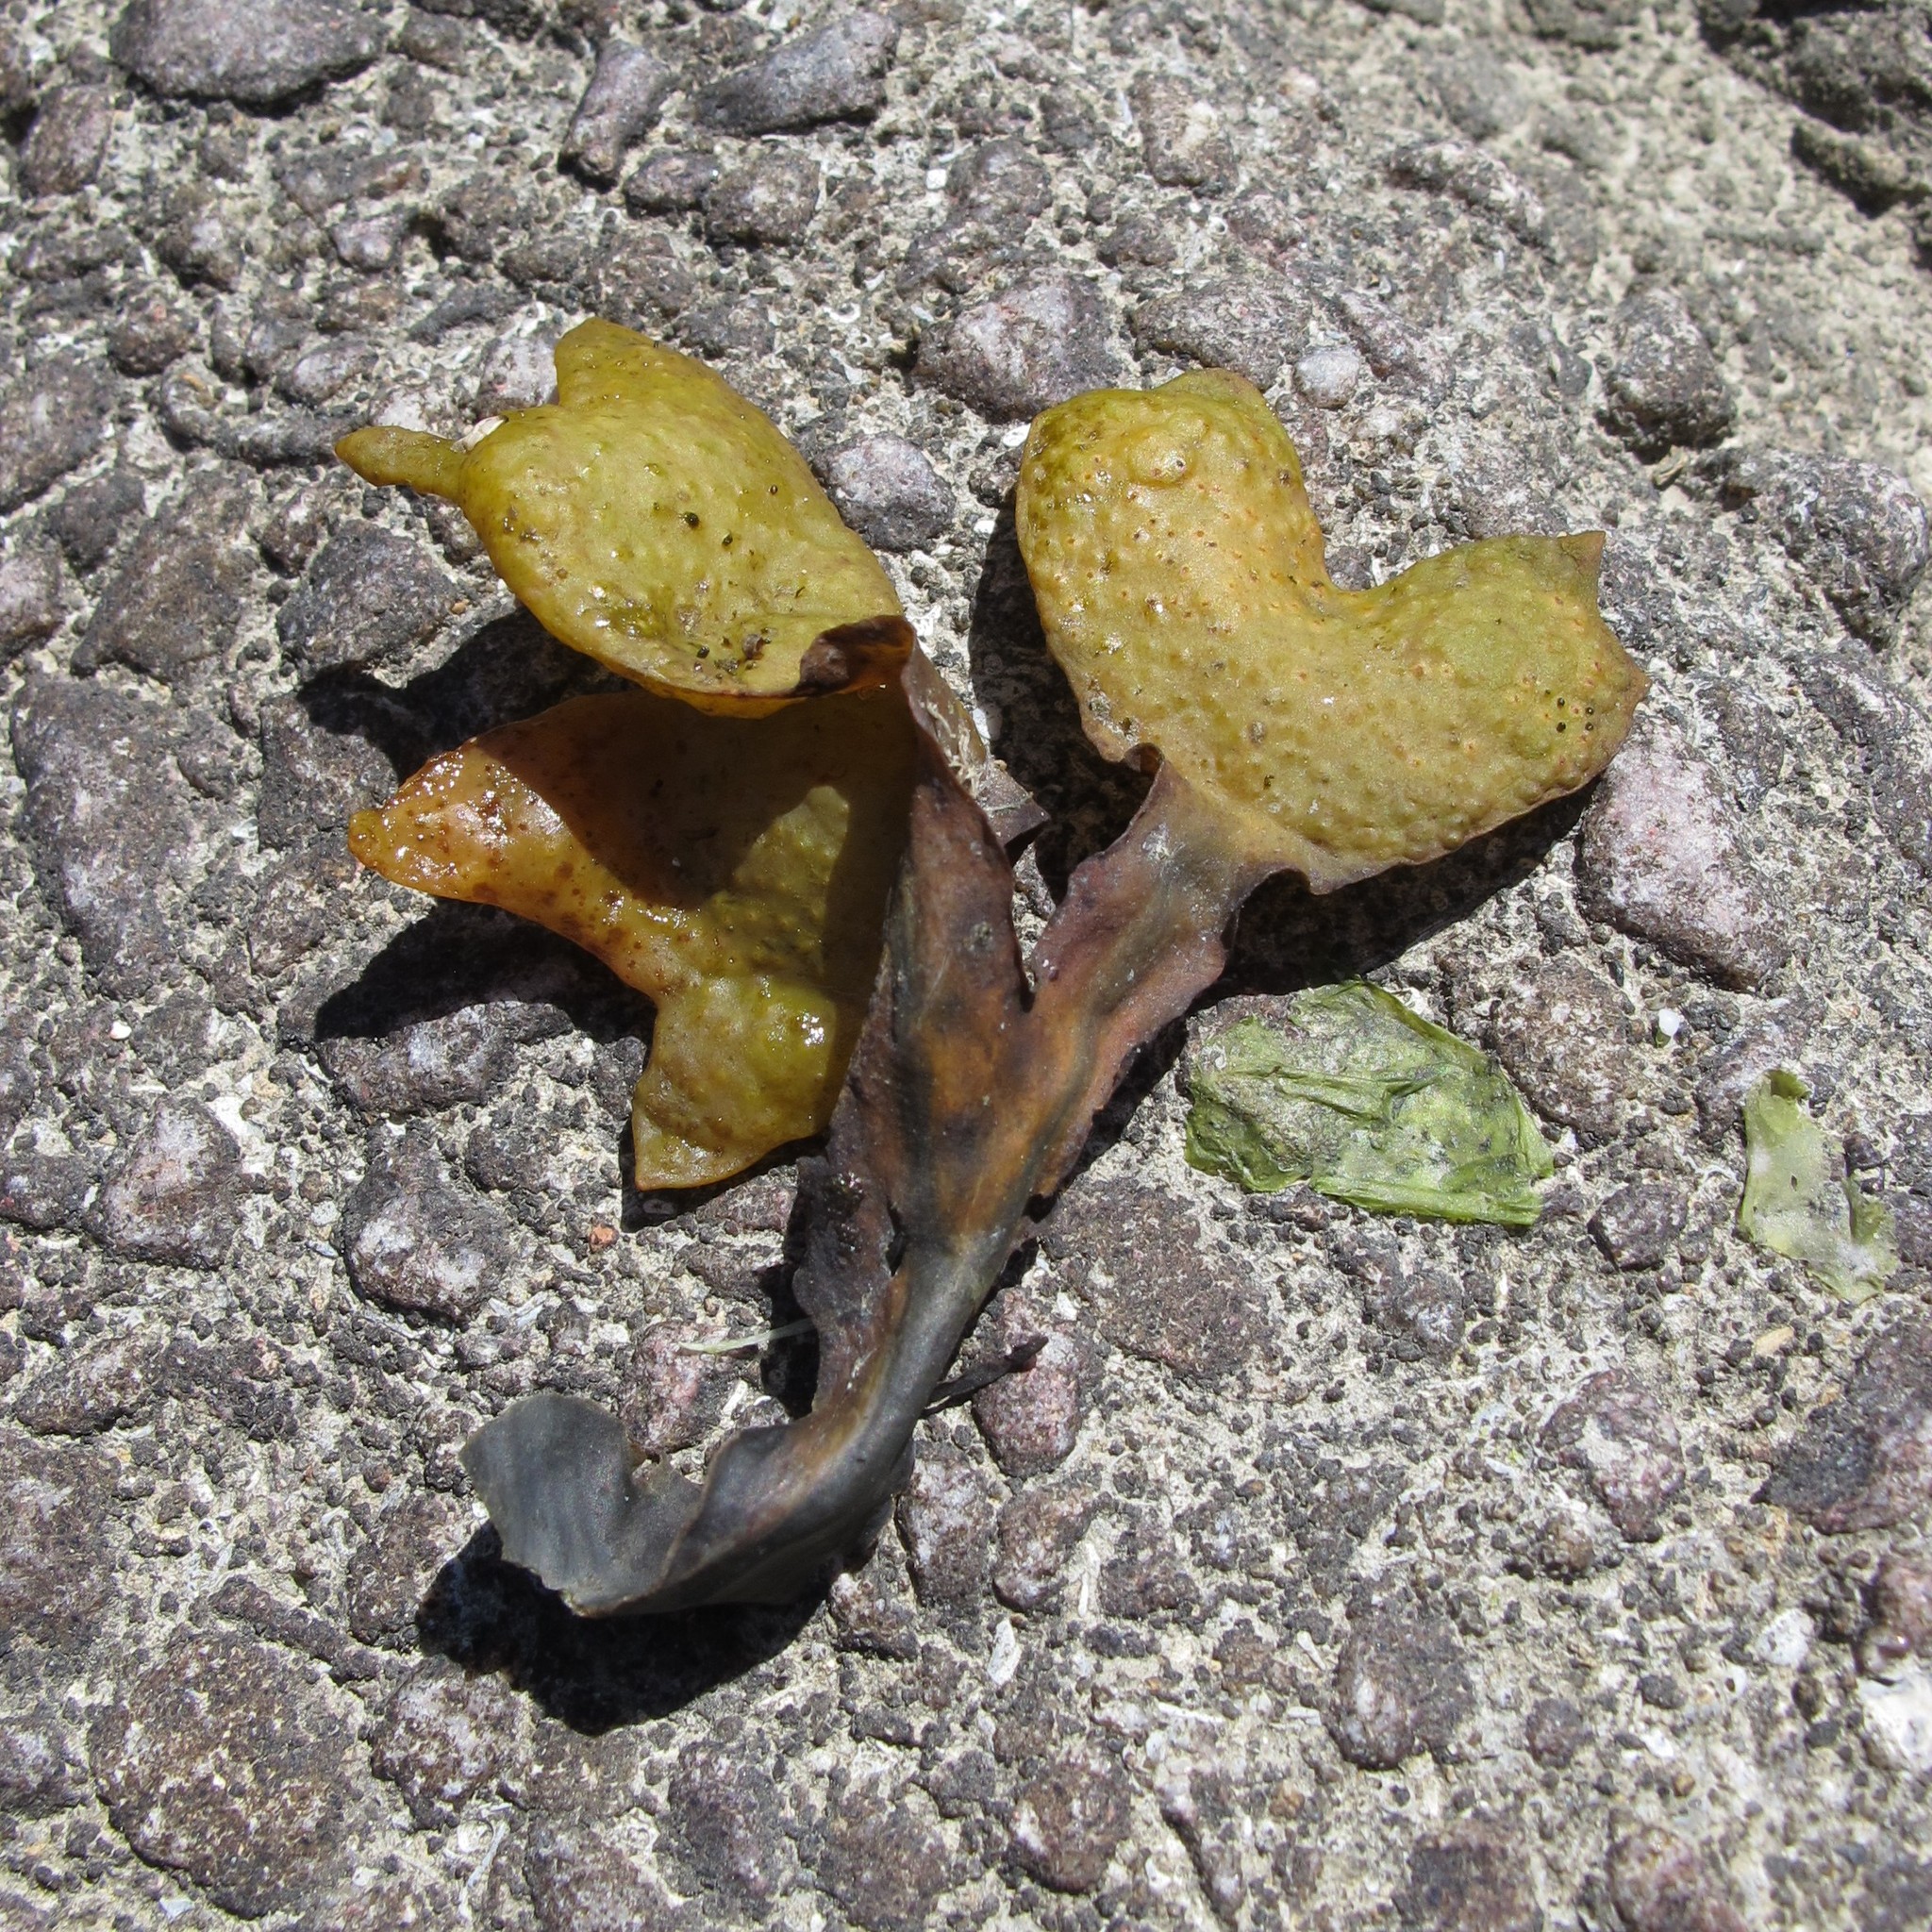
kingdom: Chromista
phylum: Ochrophyta
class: Phaeophyceae
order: Fucales
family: Fucaceae
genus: Fucus
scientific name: Fucus spiralis
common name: Spiral wrack
